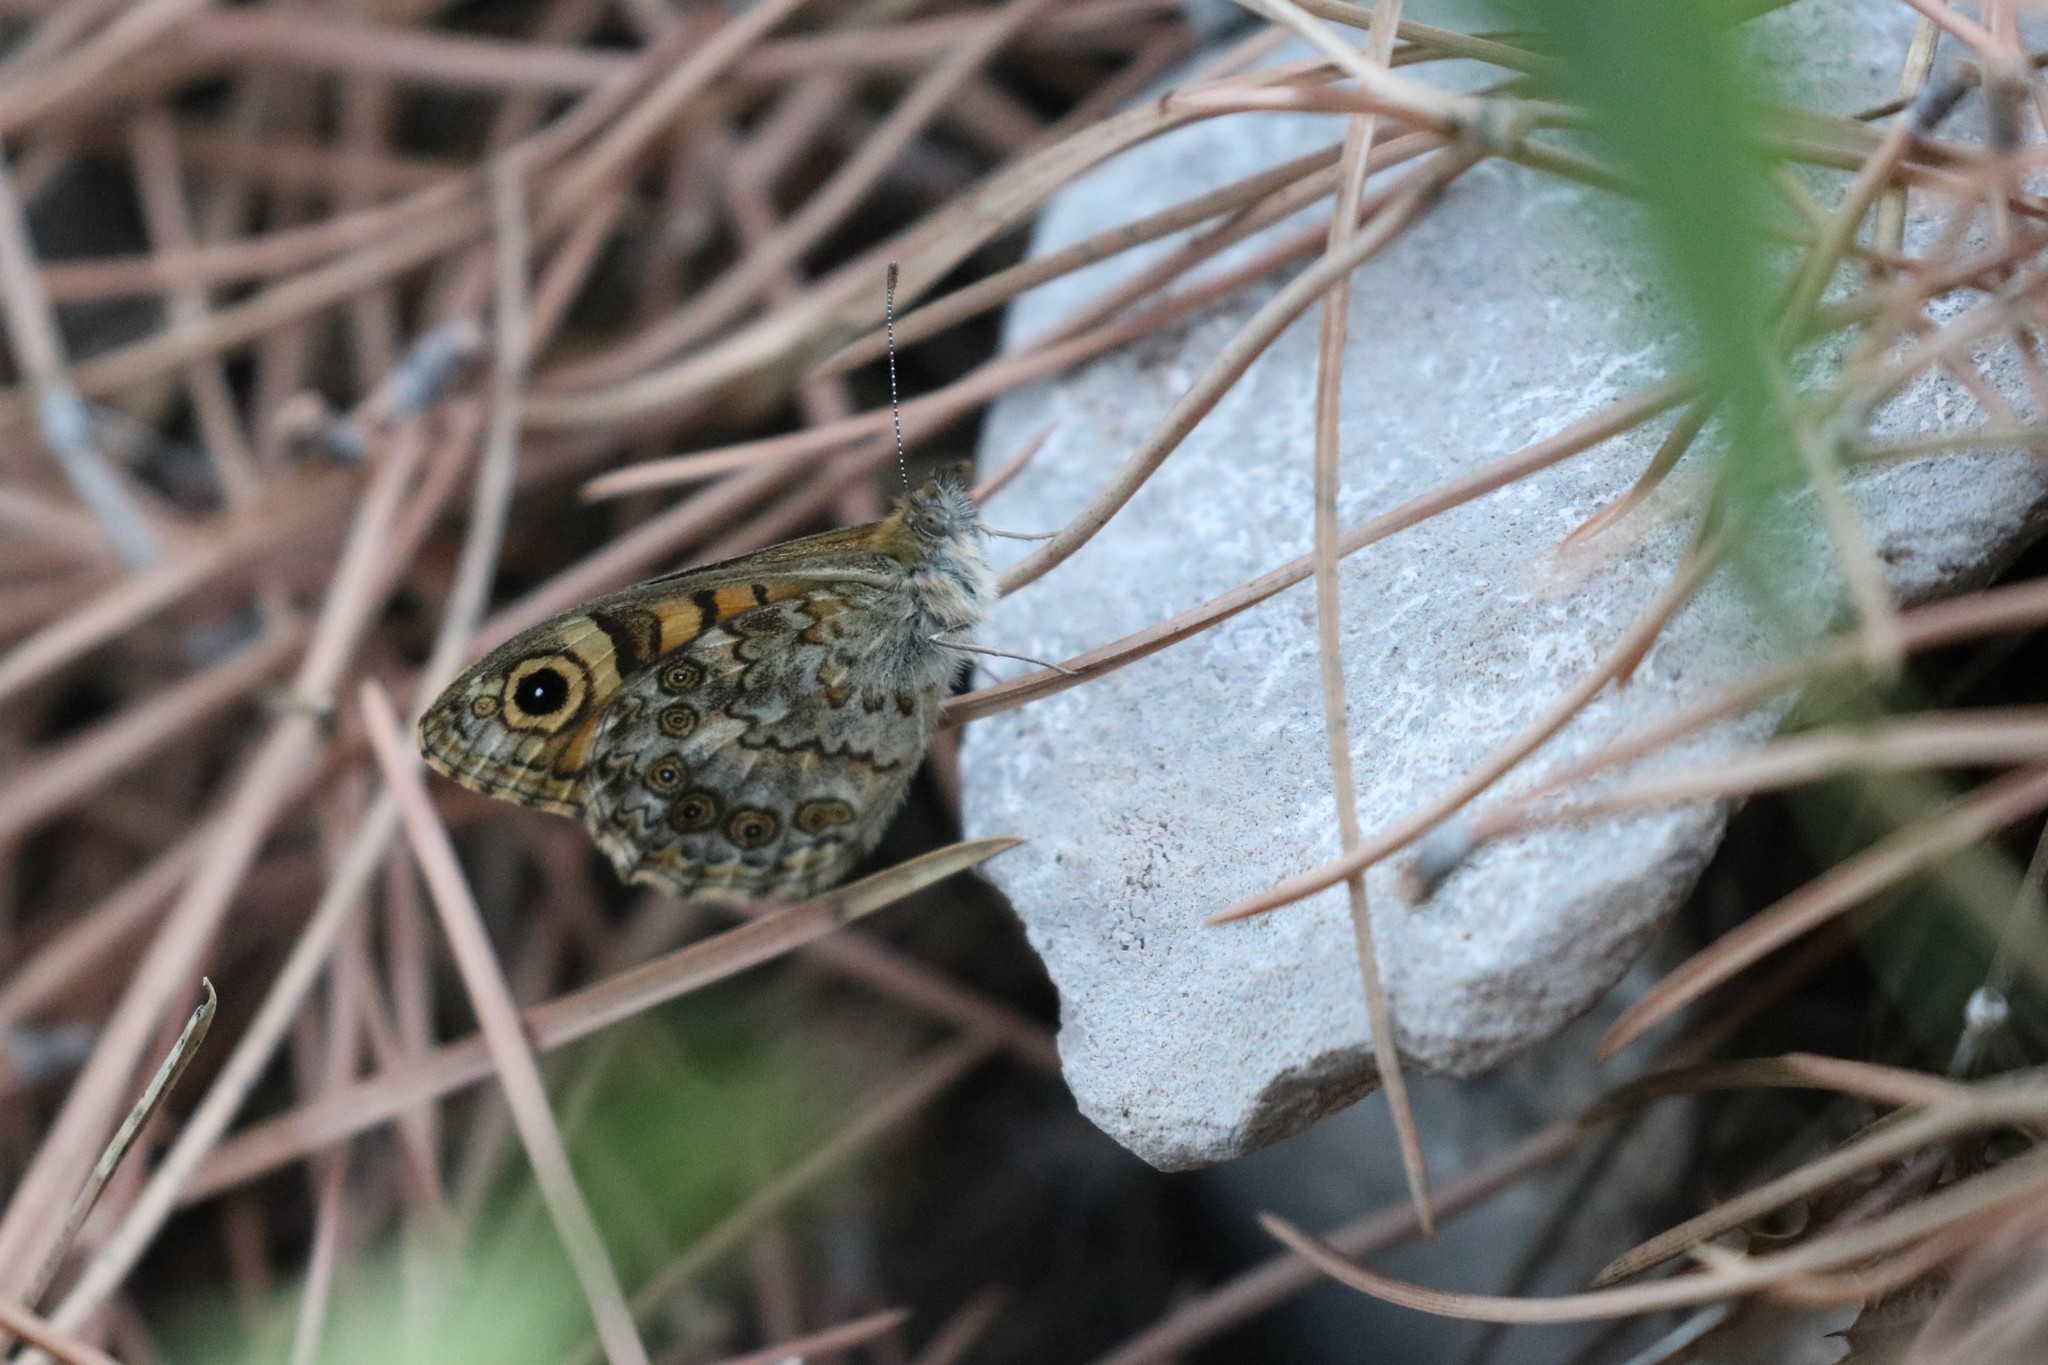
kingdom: Animalia
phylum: Arthropoda
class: Insecta
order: Lepidoptera
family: Nymphalidae
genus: Pararge
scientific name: Pararge Lasiommata megera
